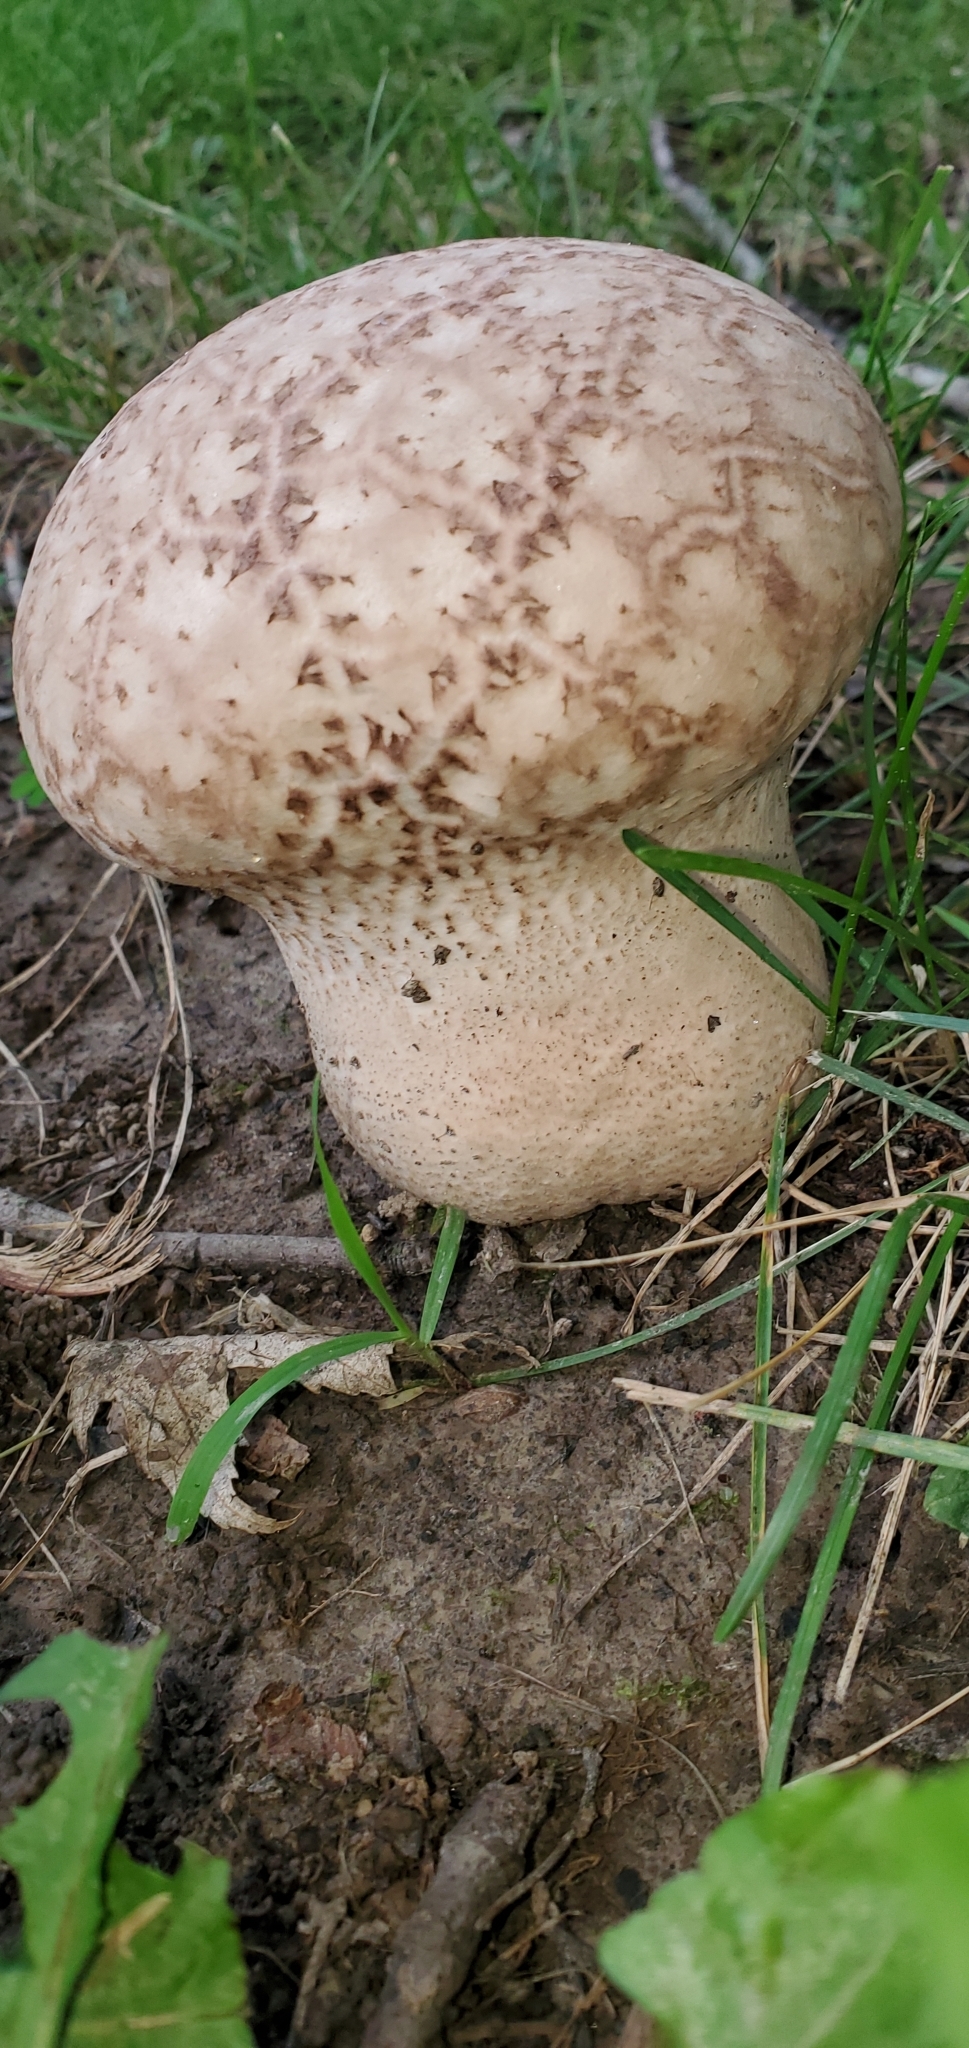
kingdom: Fungi
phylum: Basidiomycota
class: Agaricomycetes
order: Agaricales
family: Lycoperdaceae
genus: Calvatia
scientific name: Calvatia cyathiformis
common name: Purple-spored puffball
